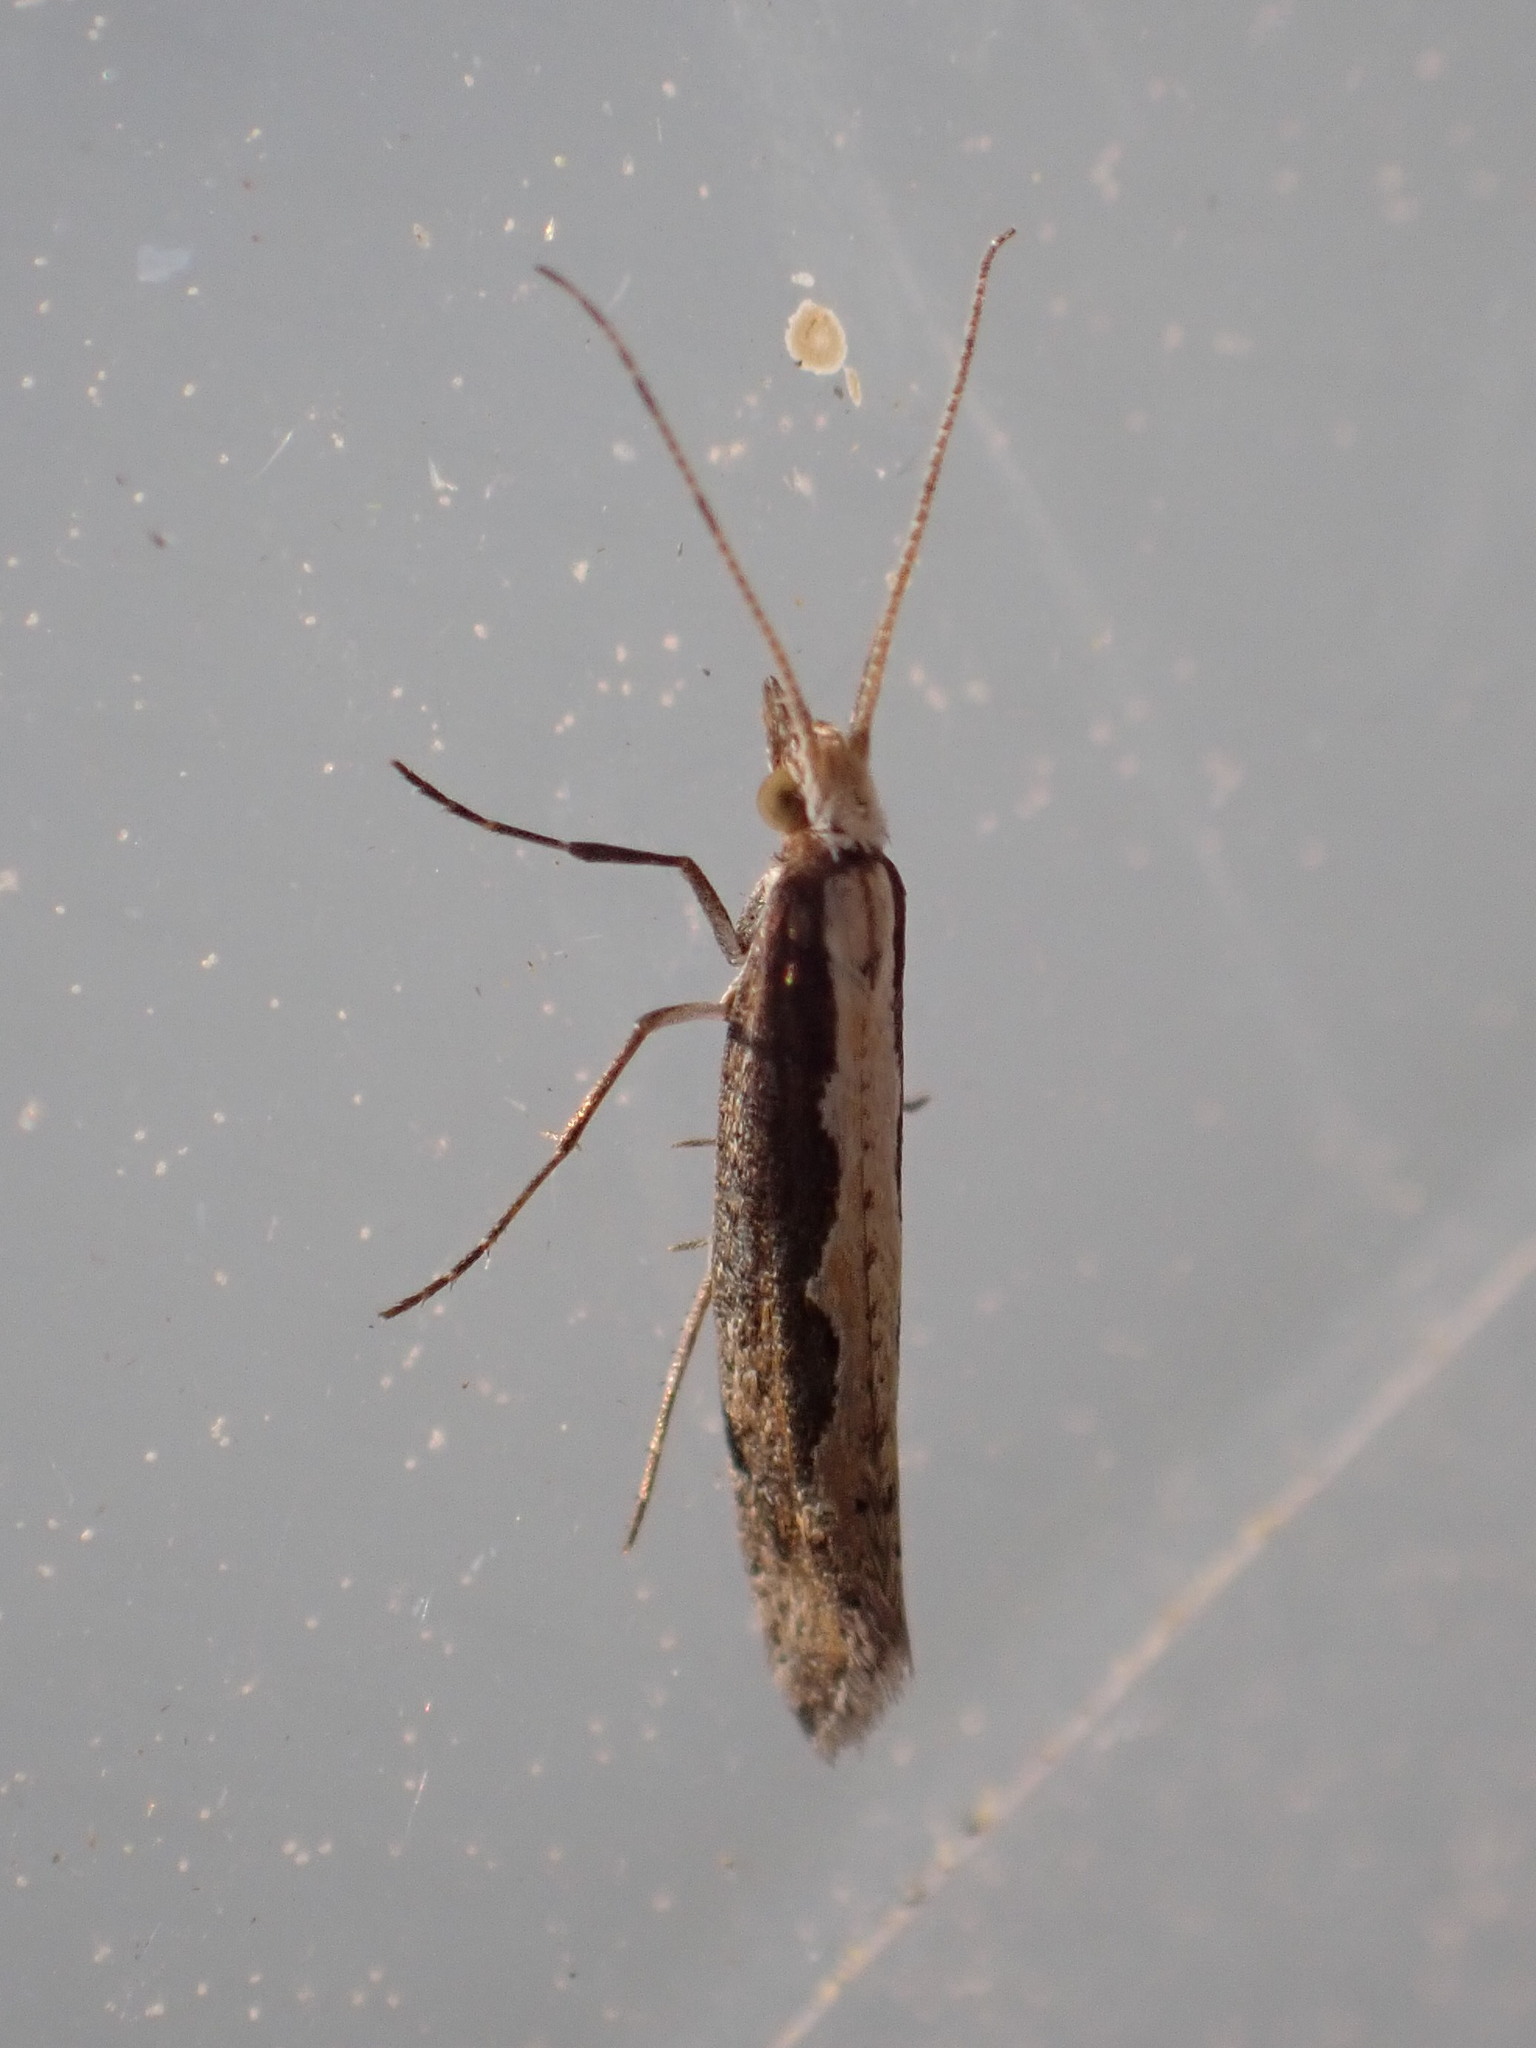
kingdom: Animalia
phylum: Arthropoda
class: Insecta
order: Lepidoptera
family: Plutellidae
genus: Plutella
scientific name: Plutella xylostella
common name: Diamond-back moth
